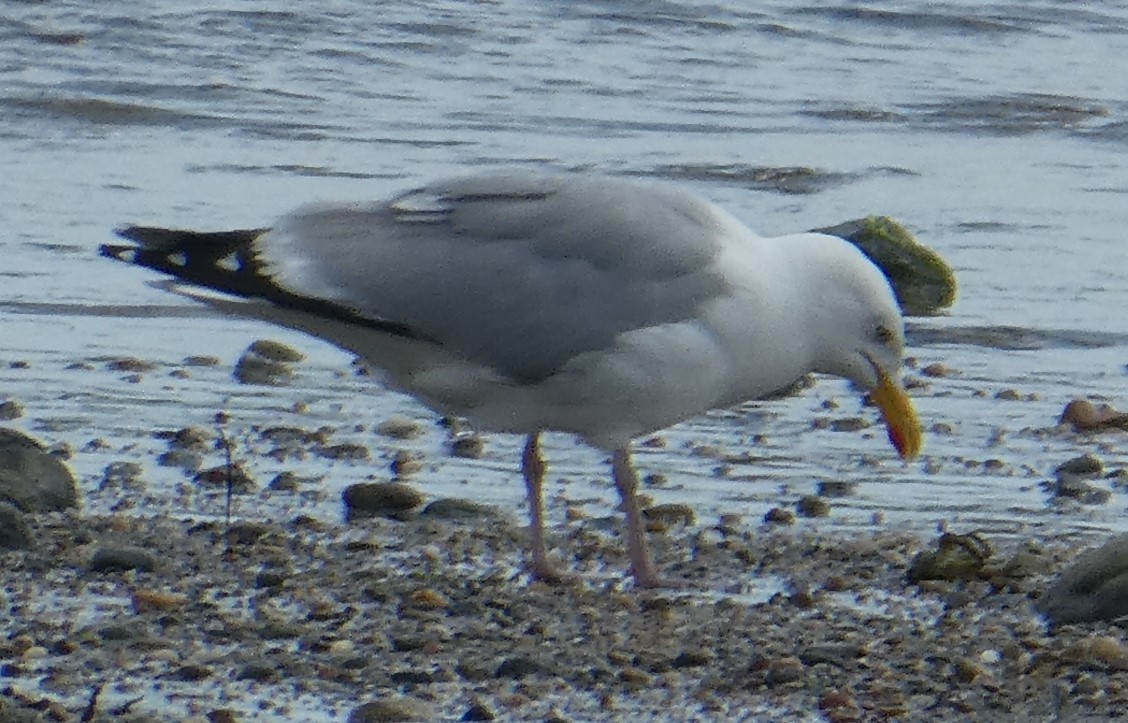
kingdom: Animalia
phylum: Chordata
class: Aves
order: Charadriiformes
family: Laridae
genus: Larus
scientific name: Larus argentatus
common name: Herring gull
